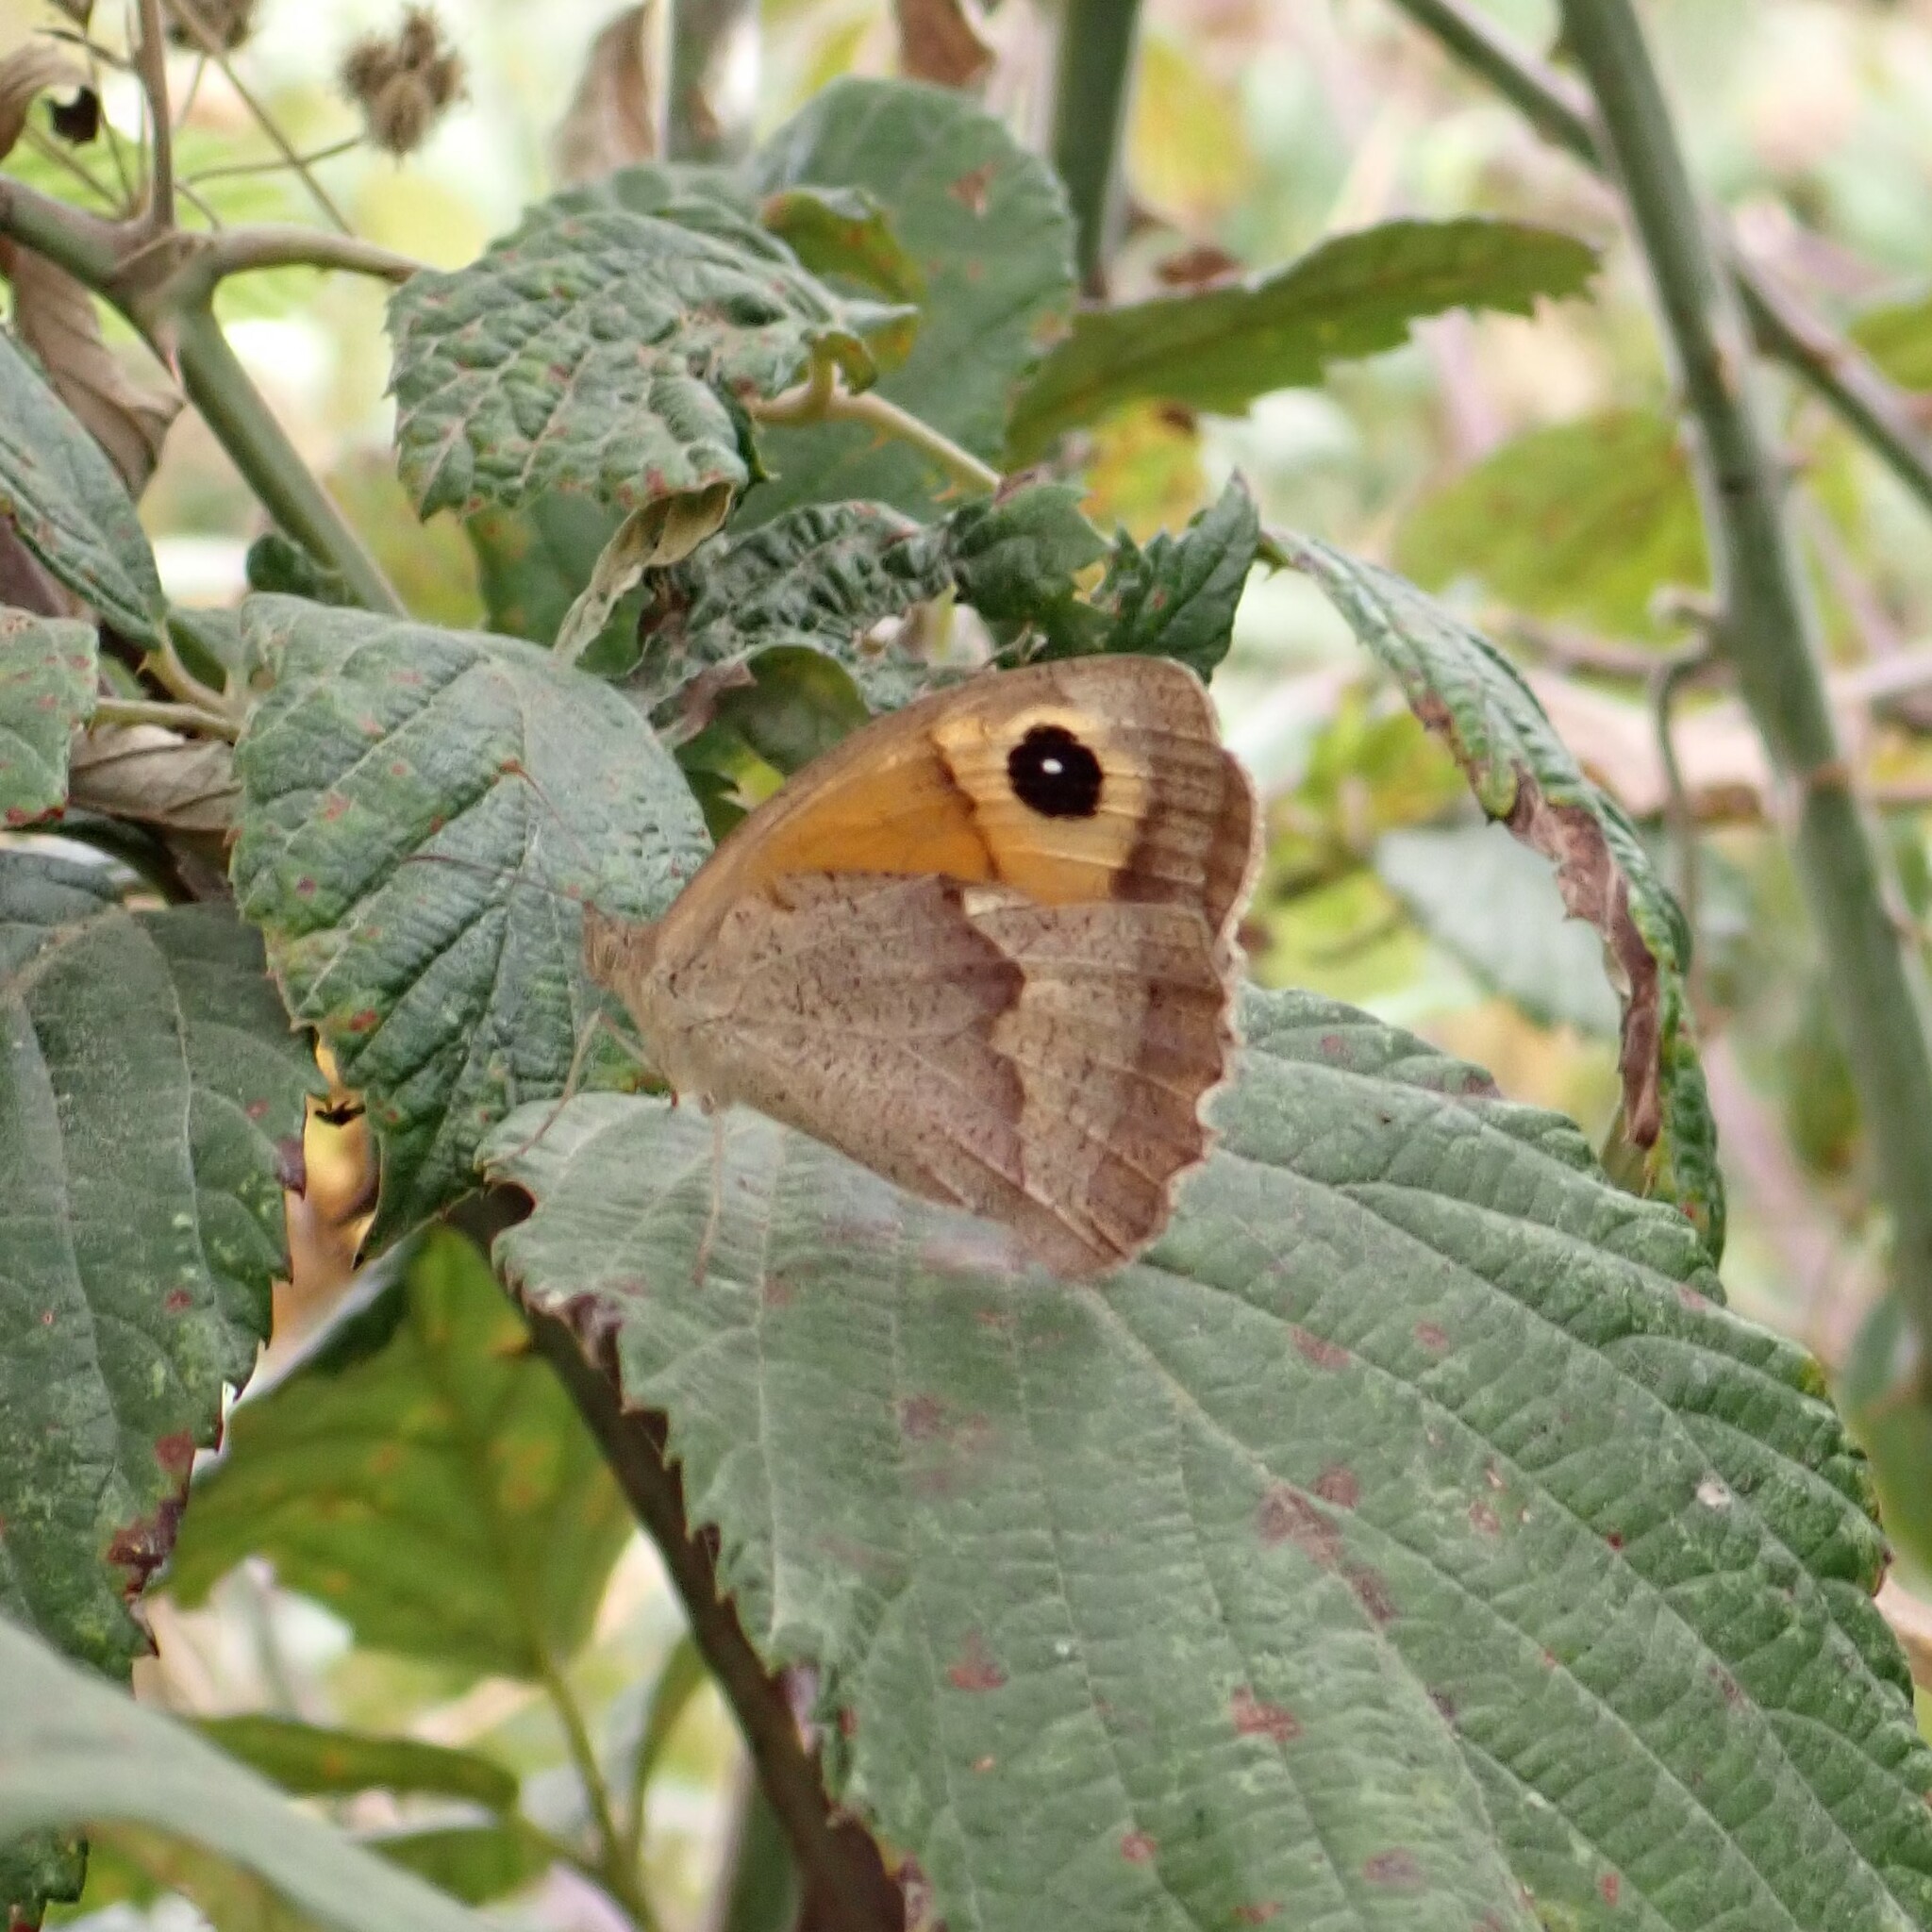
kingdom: Animalia
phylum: Arthropoda
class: Insecta
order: Lepidoptera
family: Nymphalidae
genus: Maniola
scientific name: Maniola jurtina
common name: Meadow brown
